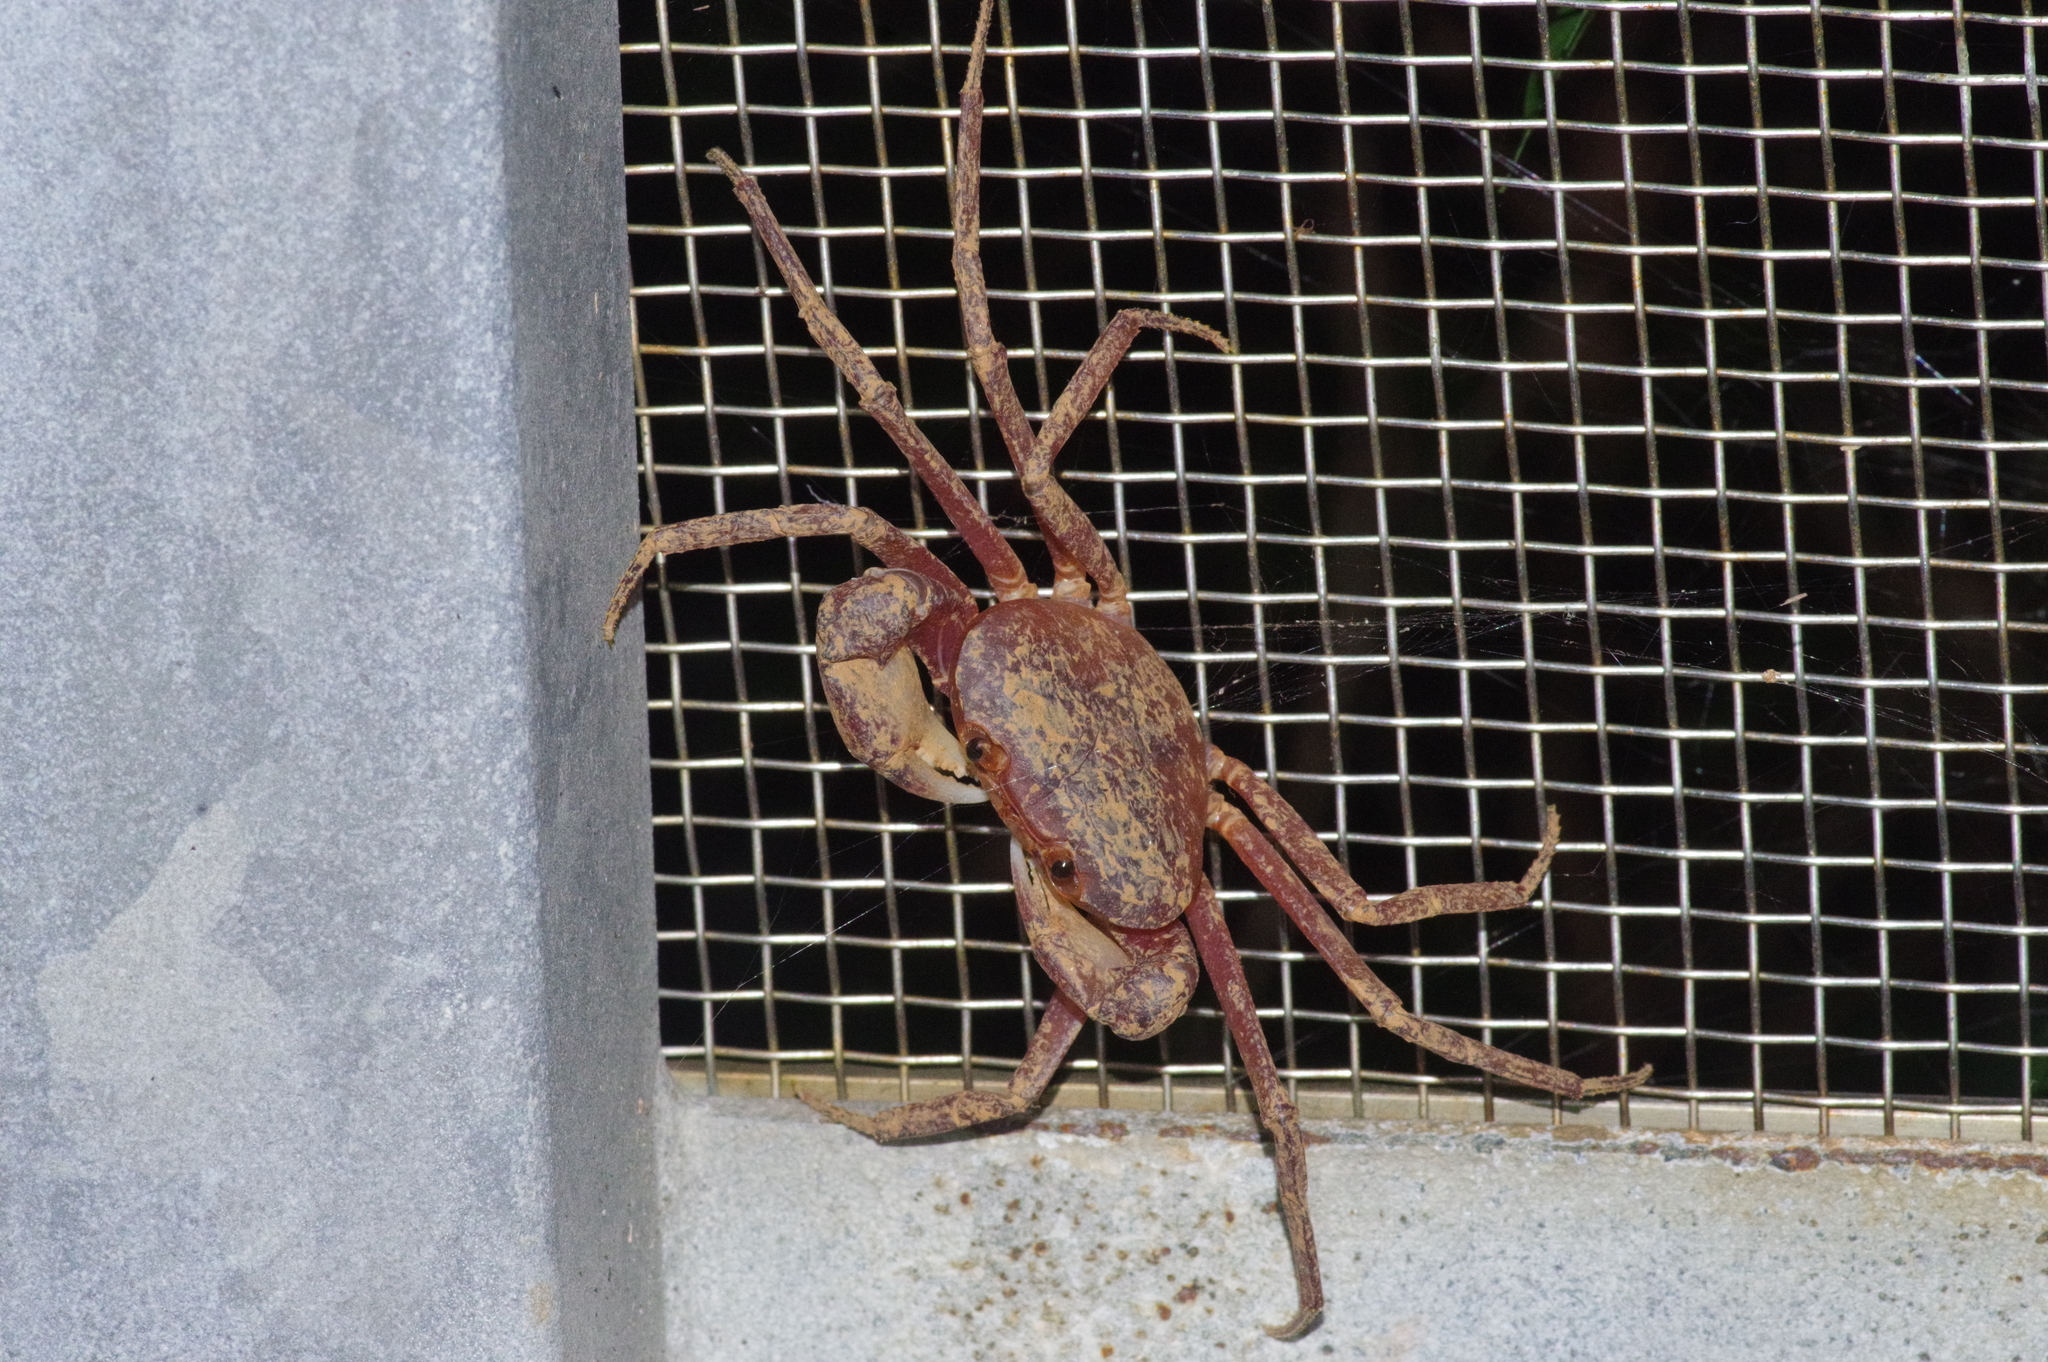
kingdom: Animalia
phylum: Arthropoda
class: Malacostraca
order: Decapoda
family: Potamidae
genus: Geothelphusa
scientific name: Geothelphusa tenuimanus
